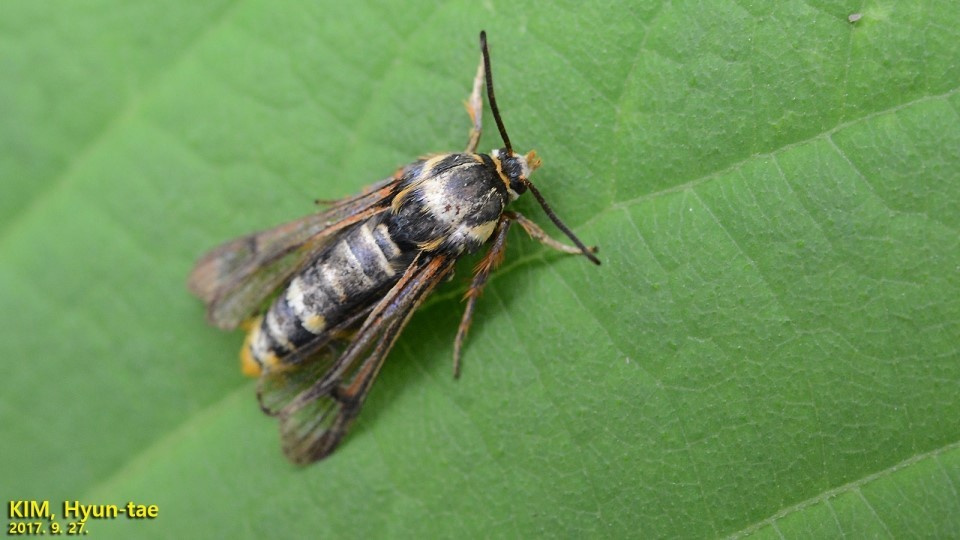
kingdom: Animalia
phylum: Arthropoda
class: Insecta
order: Lepidoptera
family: Sesiidae
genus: Pennisetia
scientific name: Pennisetia pectinata
